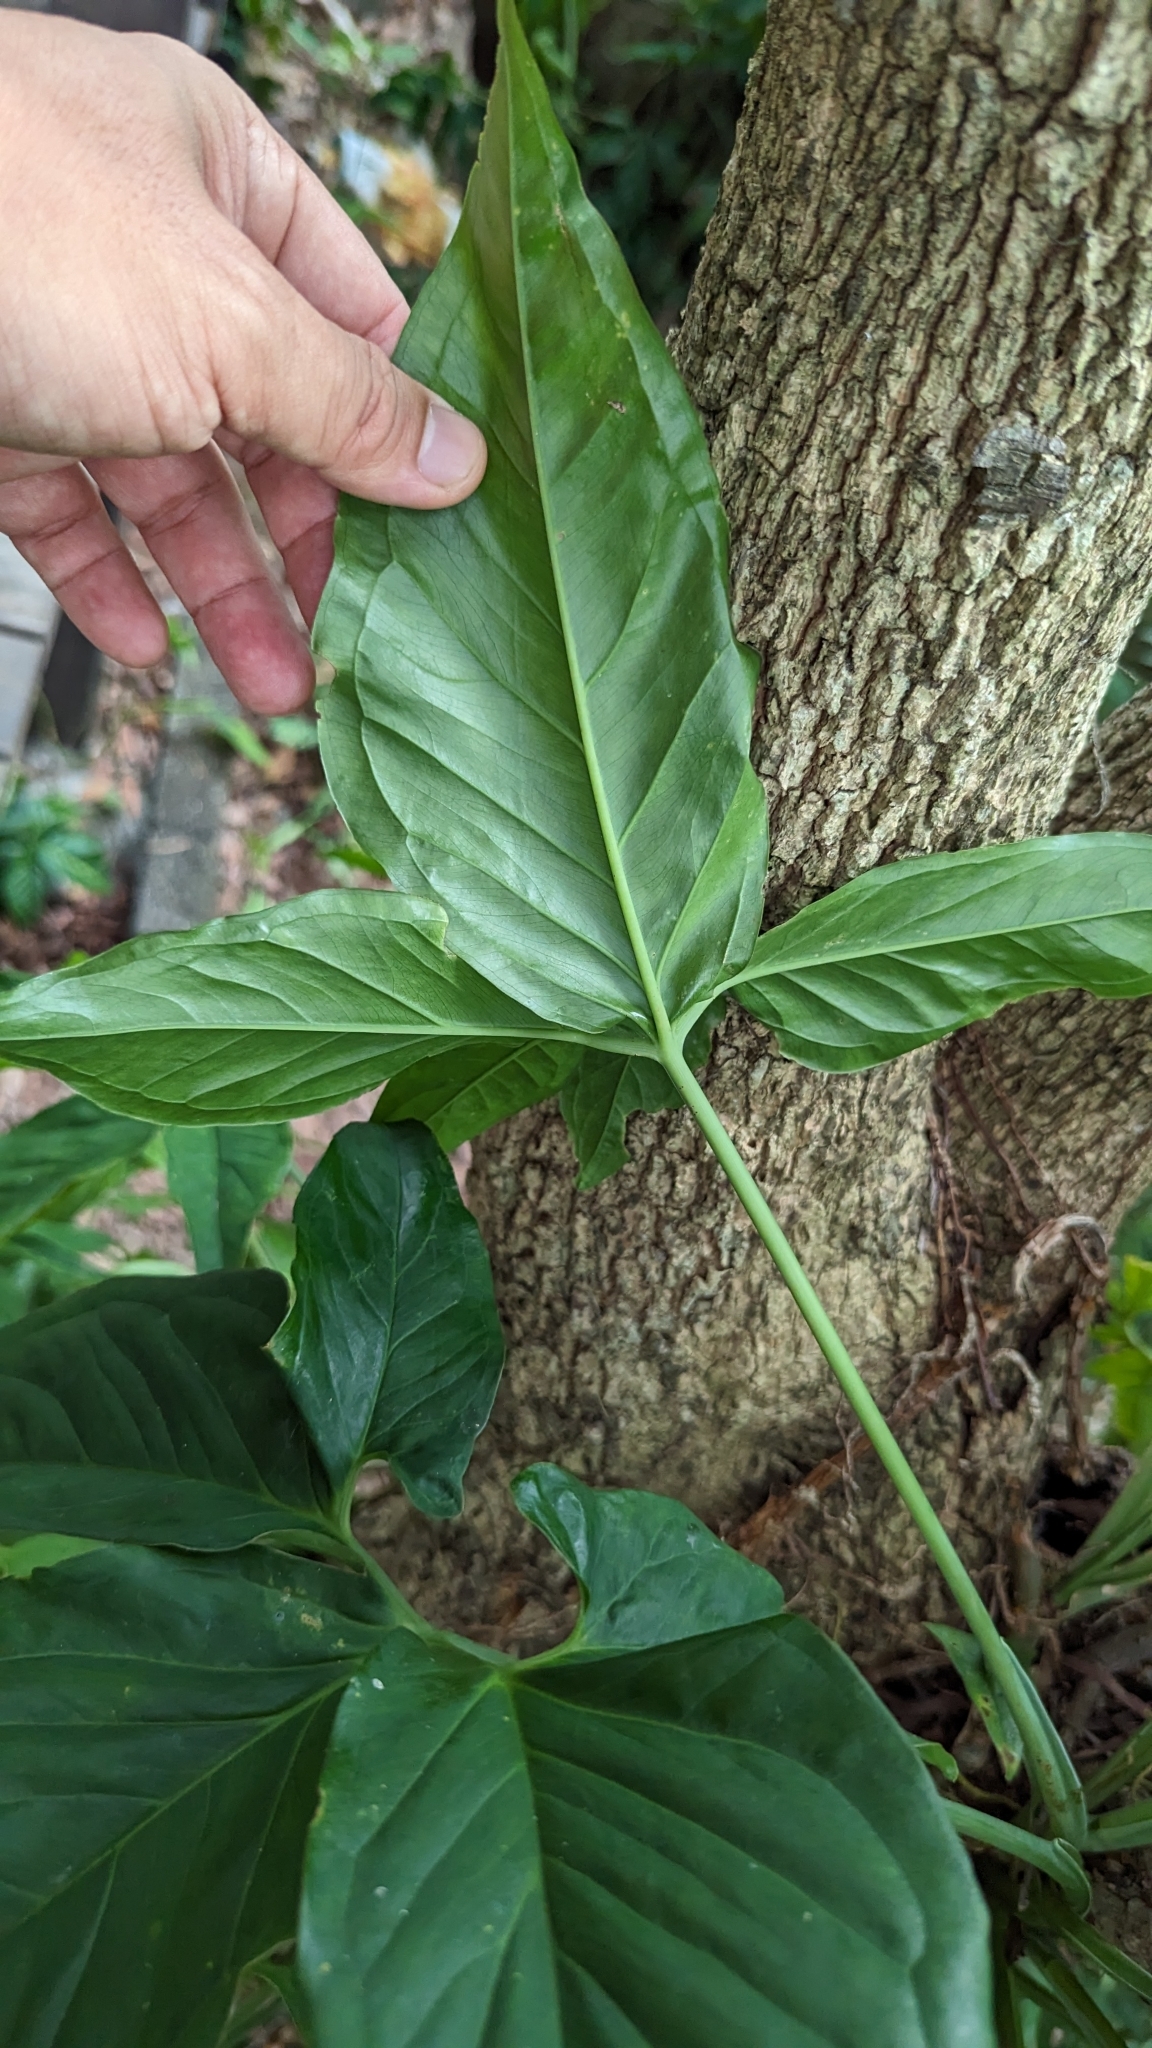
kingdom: Plantae
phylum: Tracheophyta
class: Liliopsida
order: Alismatales
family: Araceae
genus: Syngonium
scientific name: Syngonium angustatum
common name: Fivefingers
